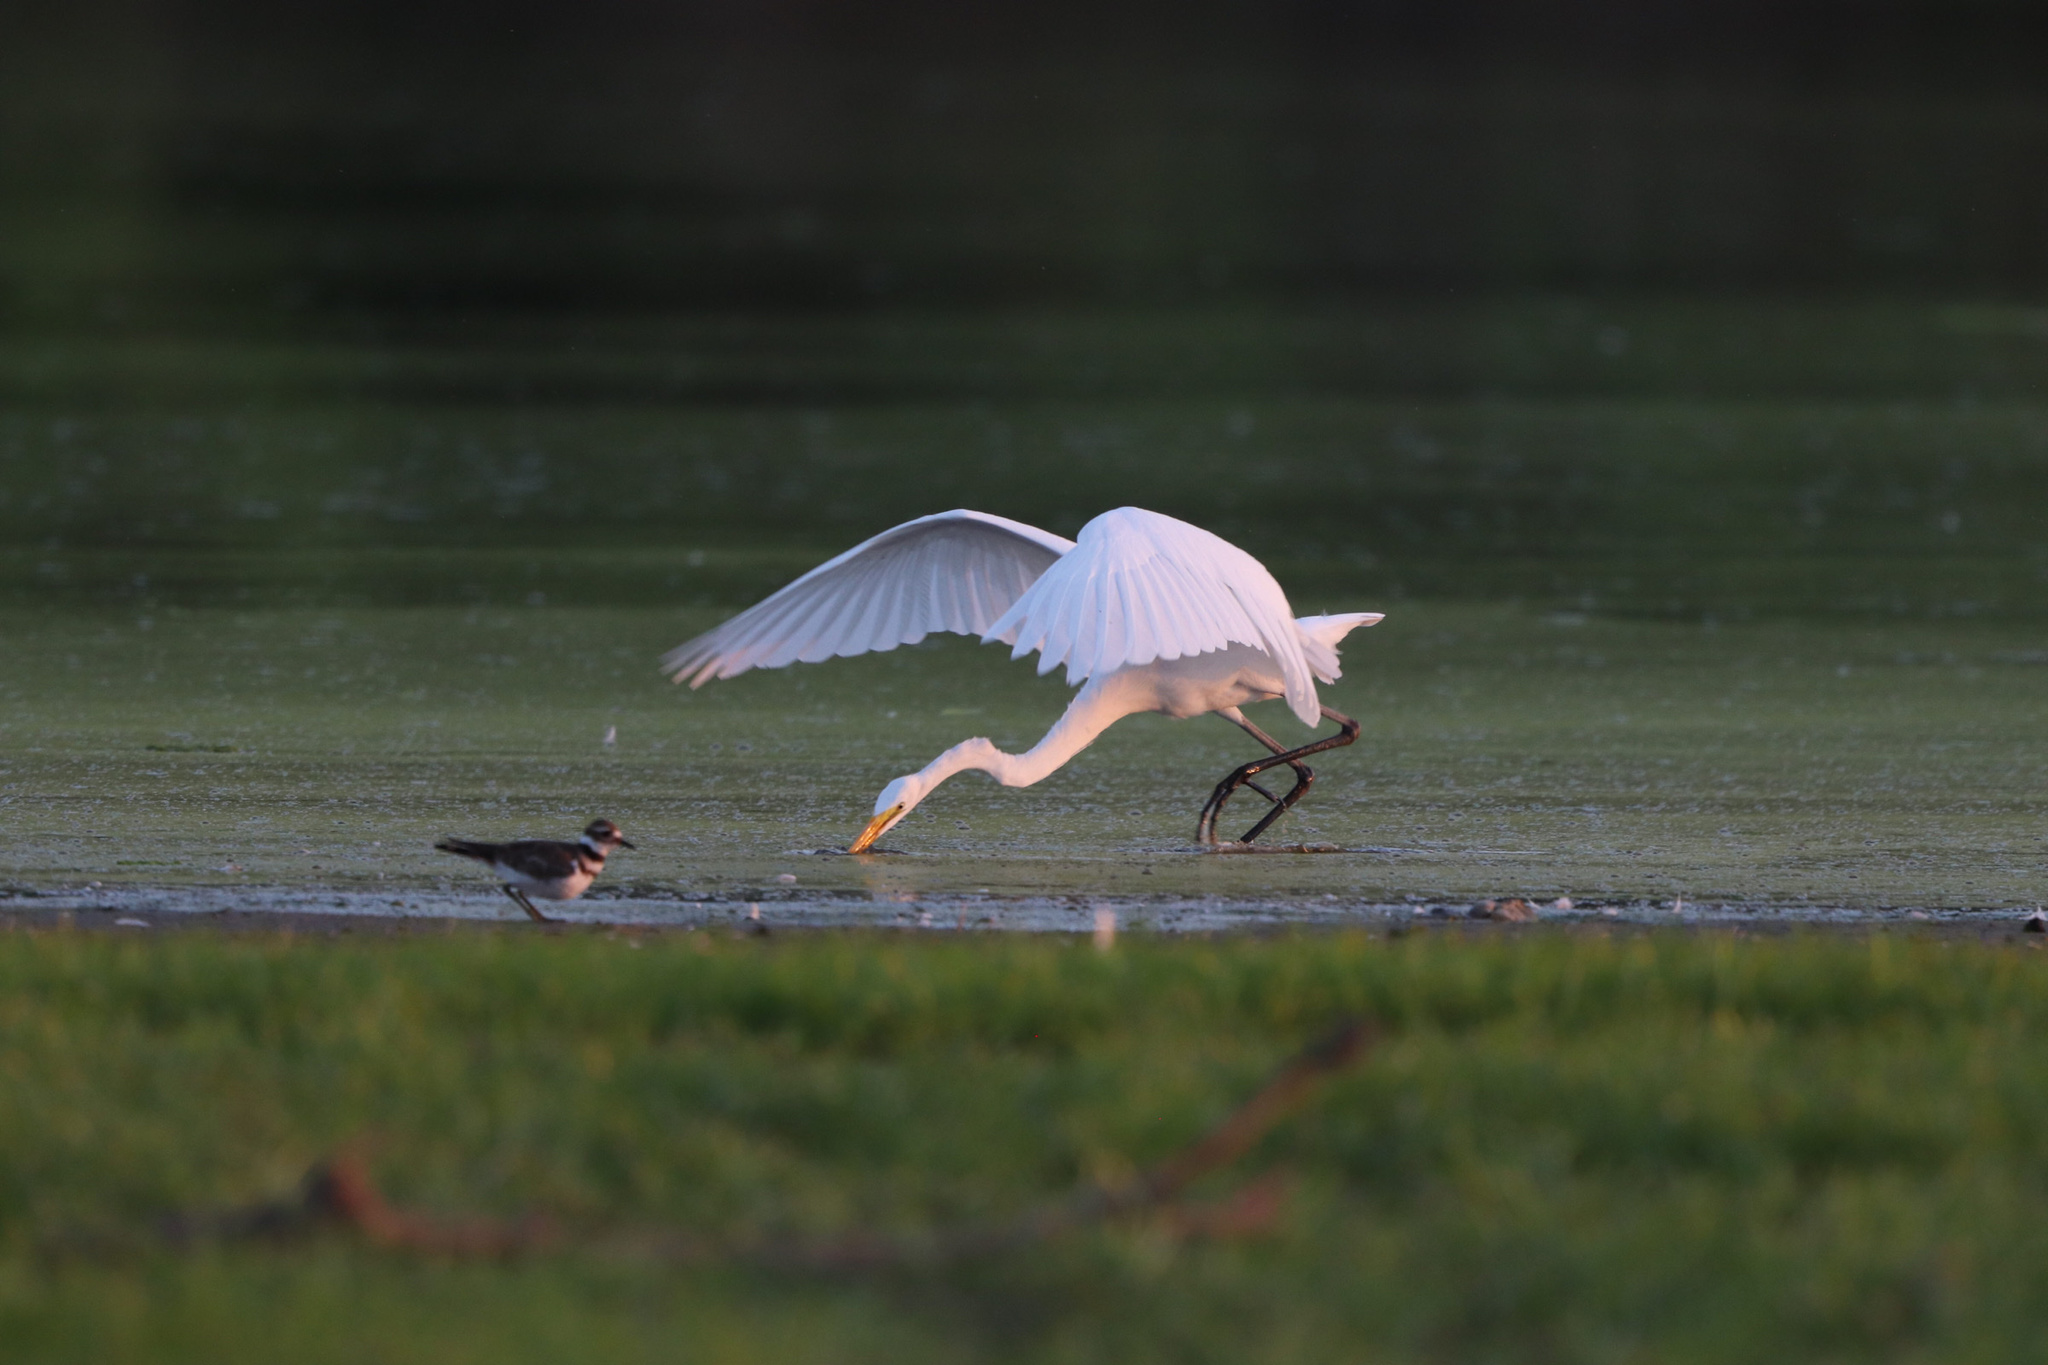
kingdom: Animalia
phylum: Chordata
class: Aves
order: Pelecaniformes
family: Ardeidae
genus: Ardea
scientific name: Ardea alba
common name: Great egret
